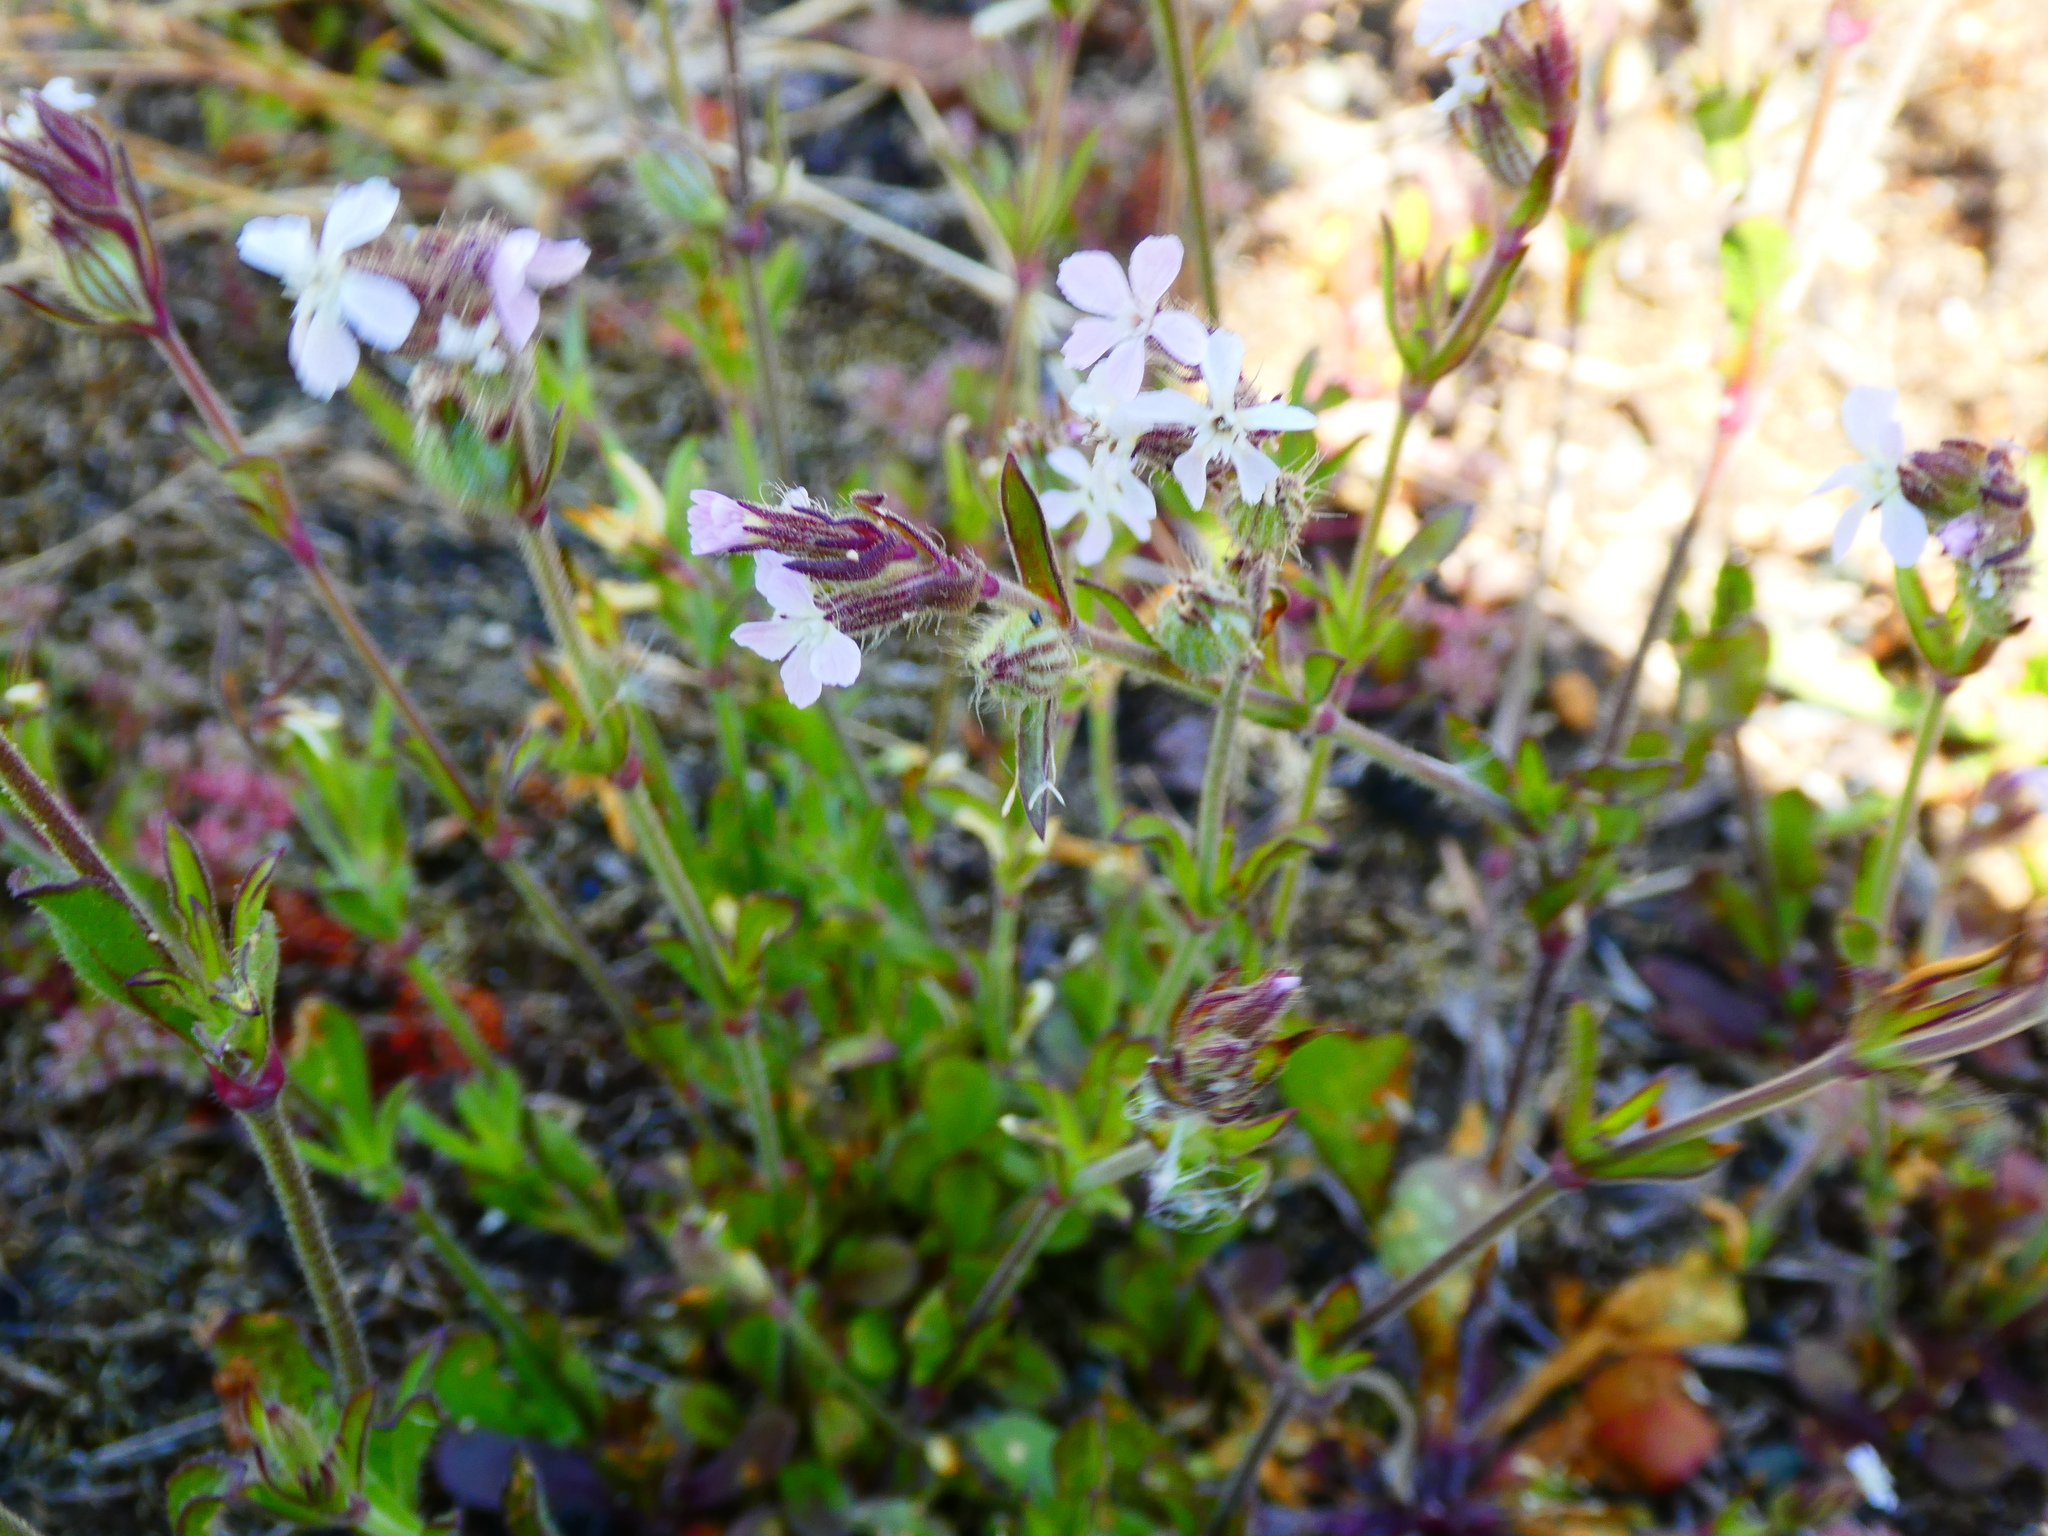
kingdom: Plantae
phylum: Tracheophyta
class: Magnoliopsida
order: Caryophyllales
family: Caryophyllaceae
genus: Silene
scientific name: Silene gallica
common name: Small-flowered catchfly
